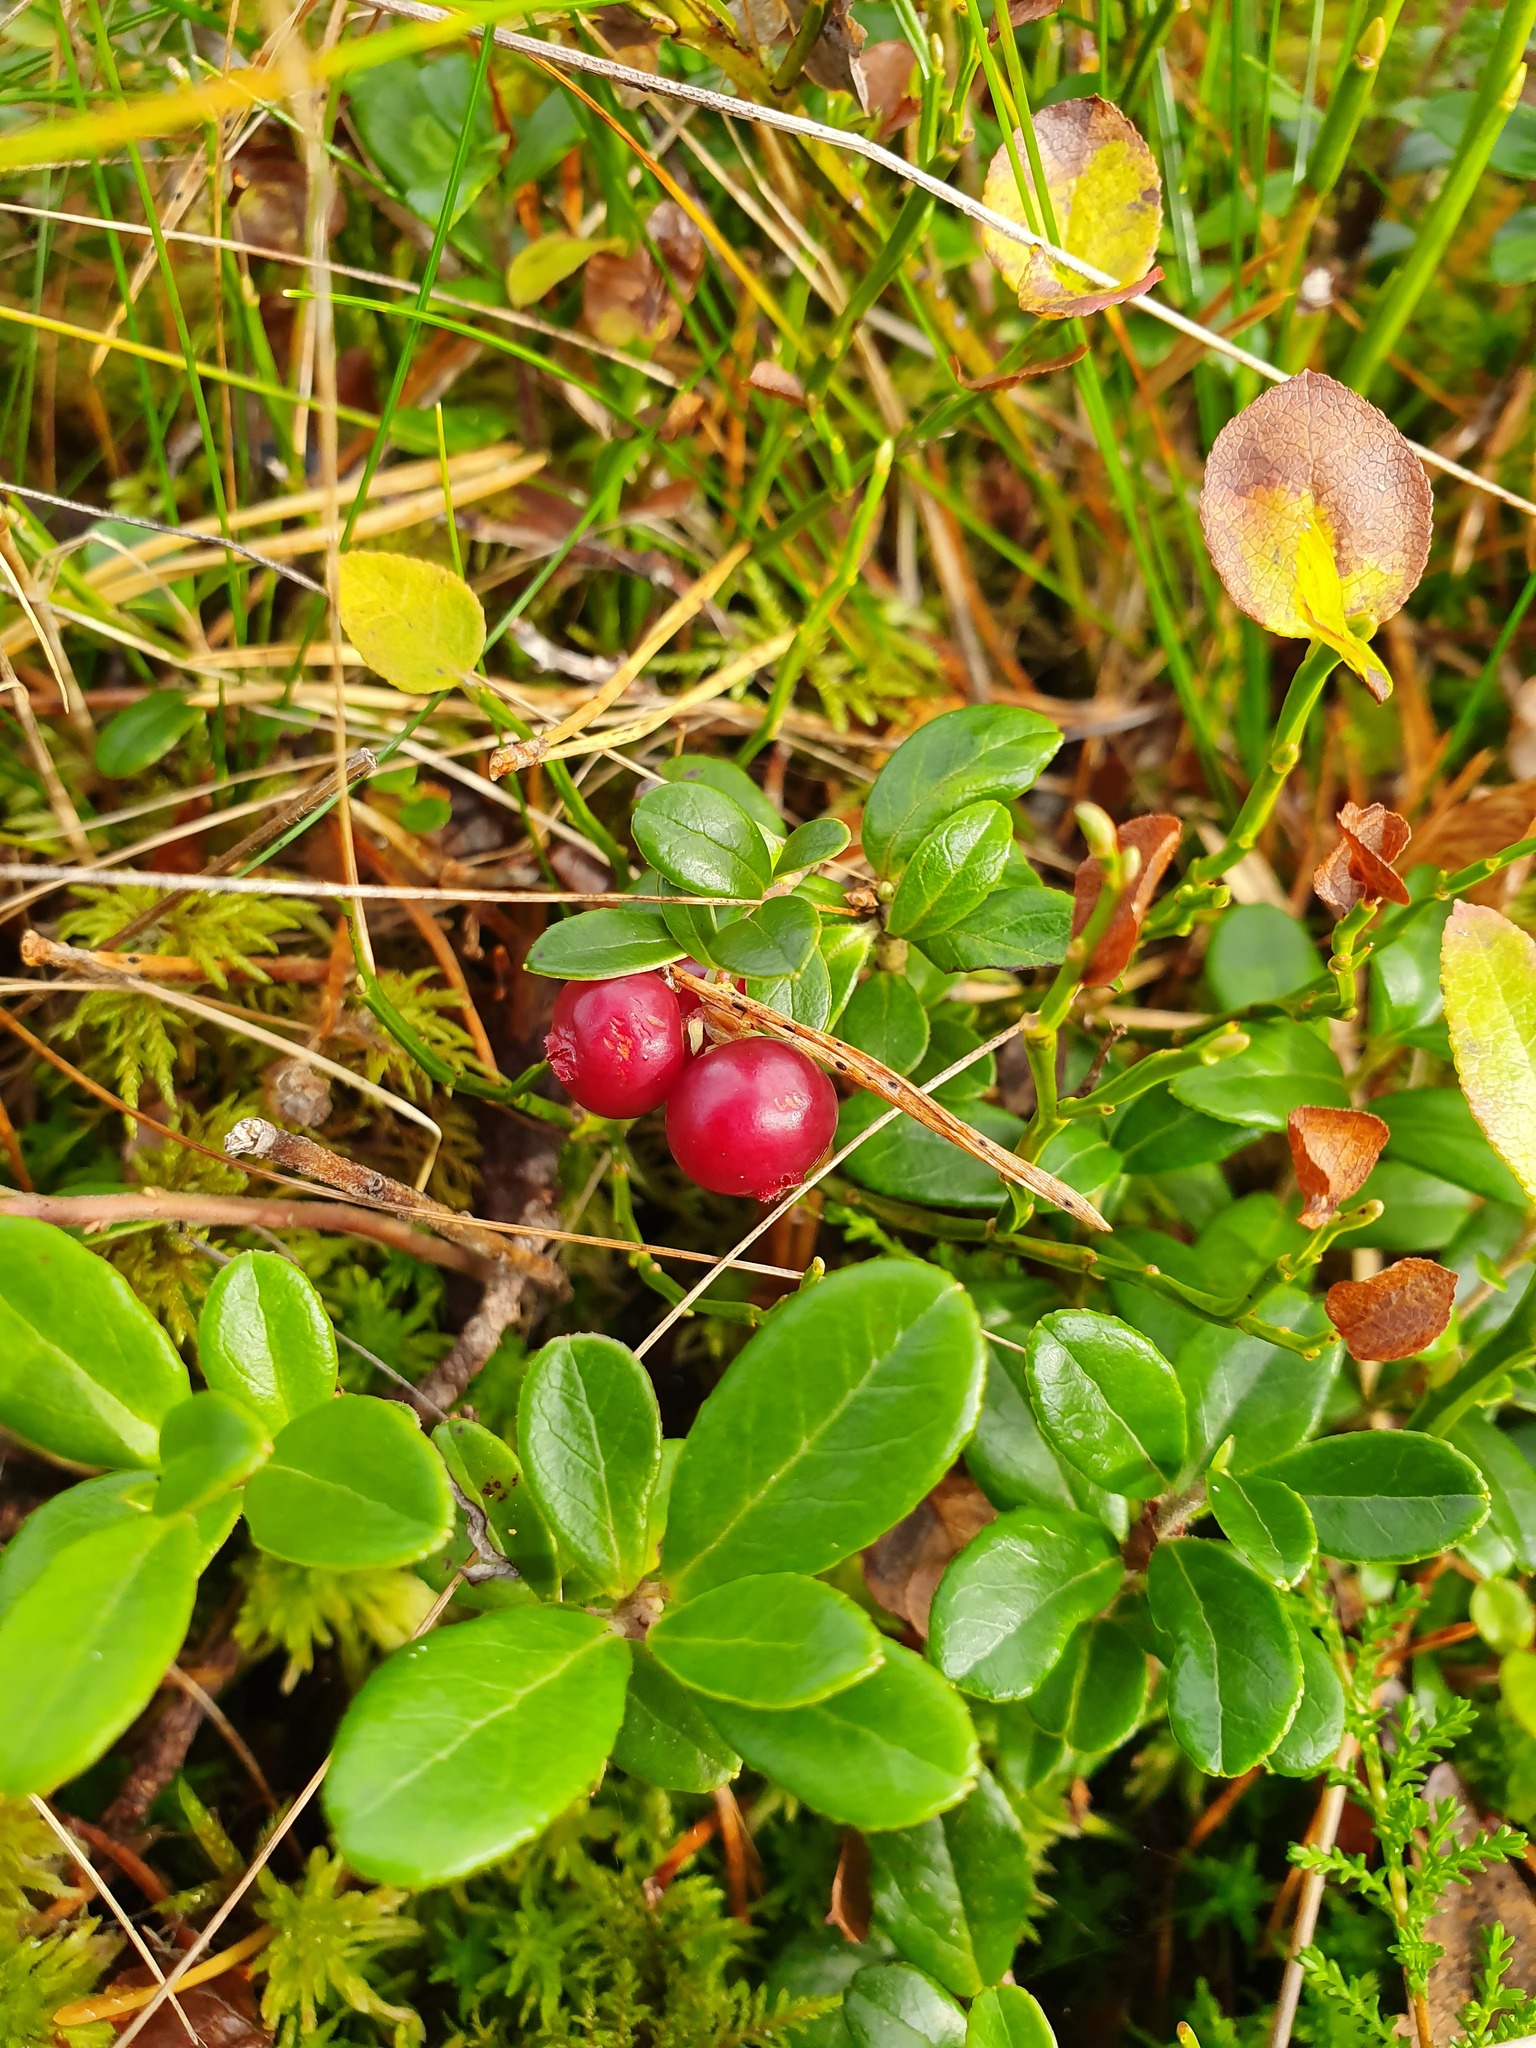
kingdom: Plantae
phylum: Tracheophyta
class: Magnoliopsida
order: Ericales
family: Ericaceae
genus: Vaccinium
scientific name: Vaccinium vitis-idaea
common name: Cowberry
